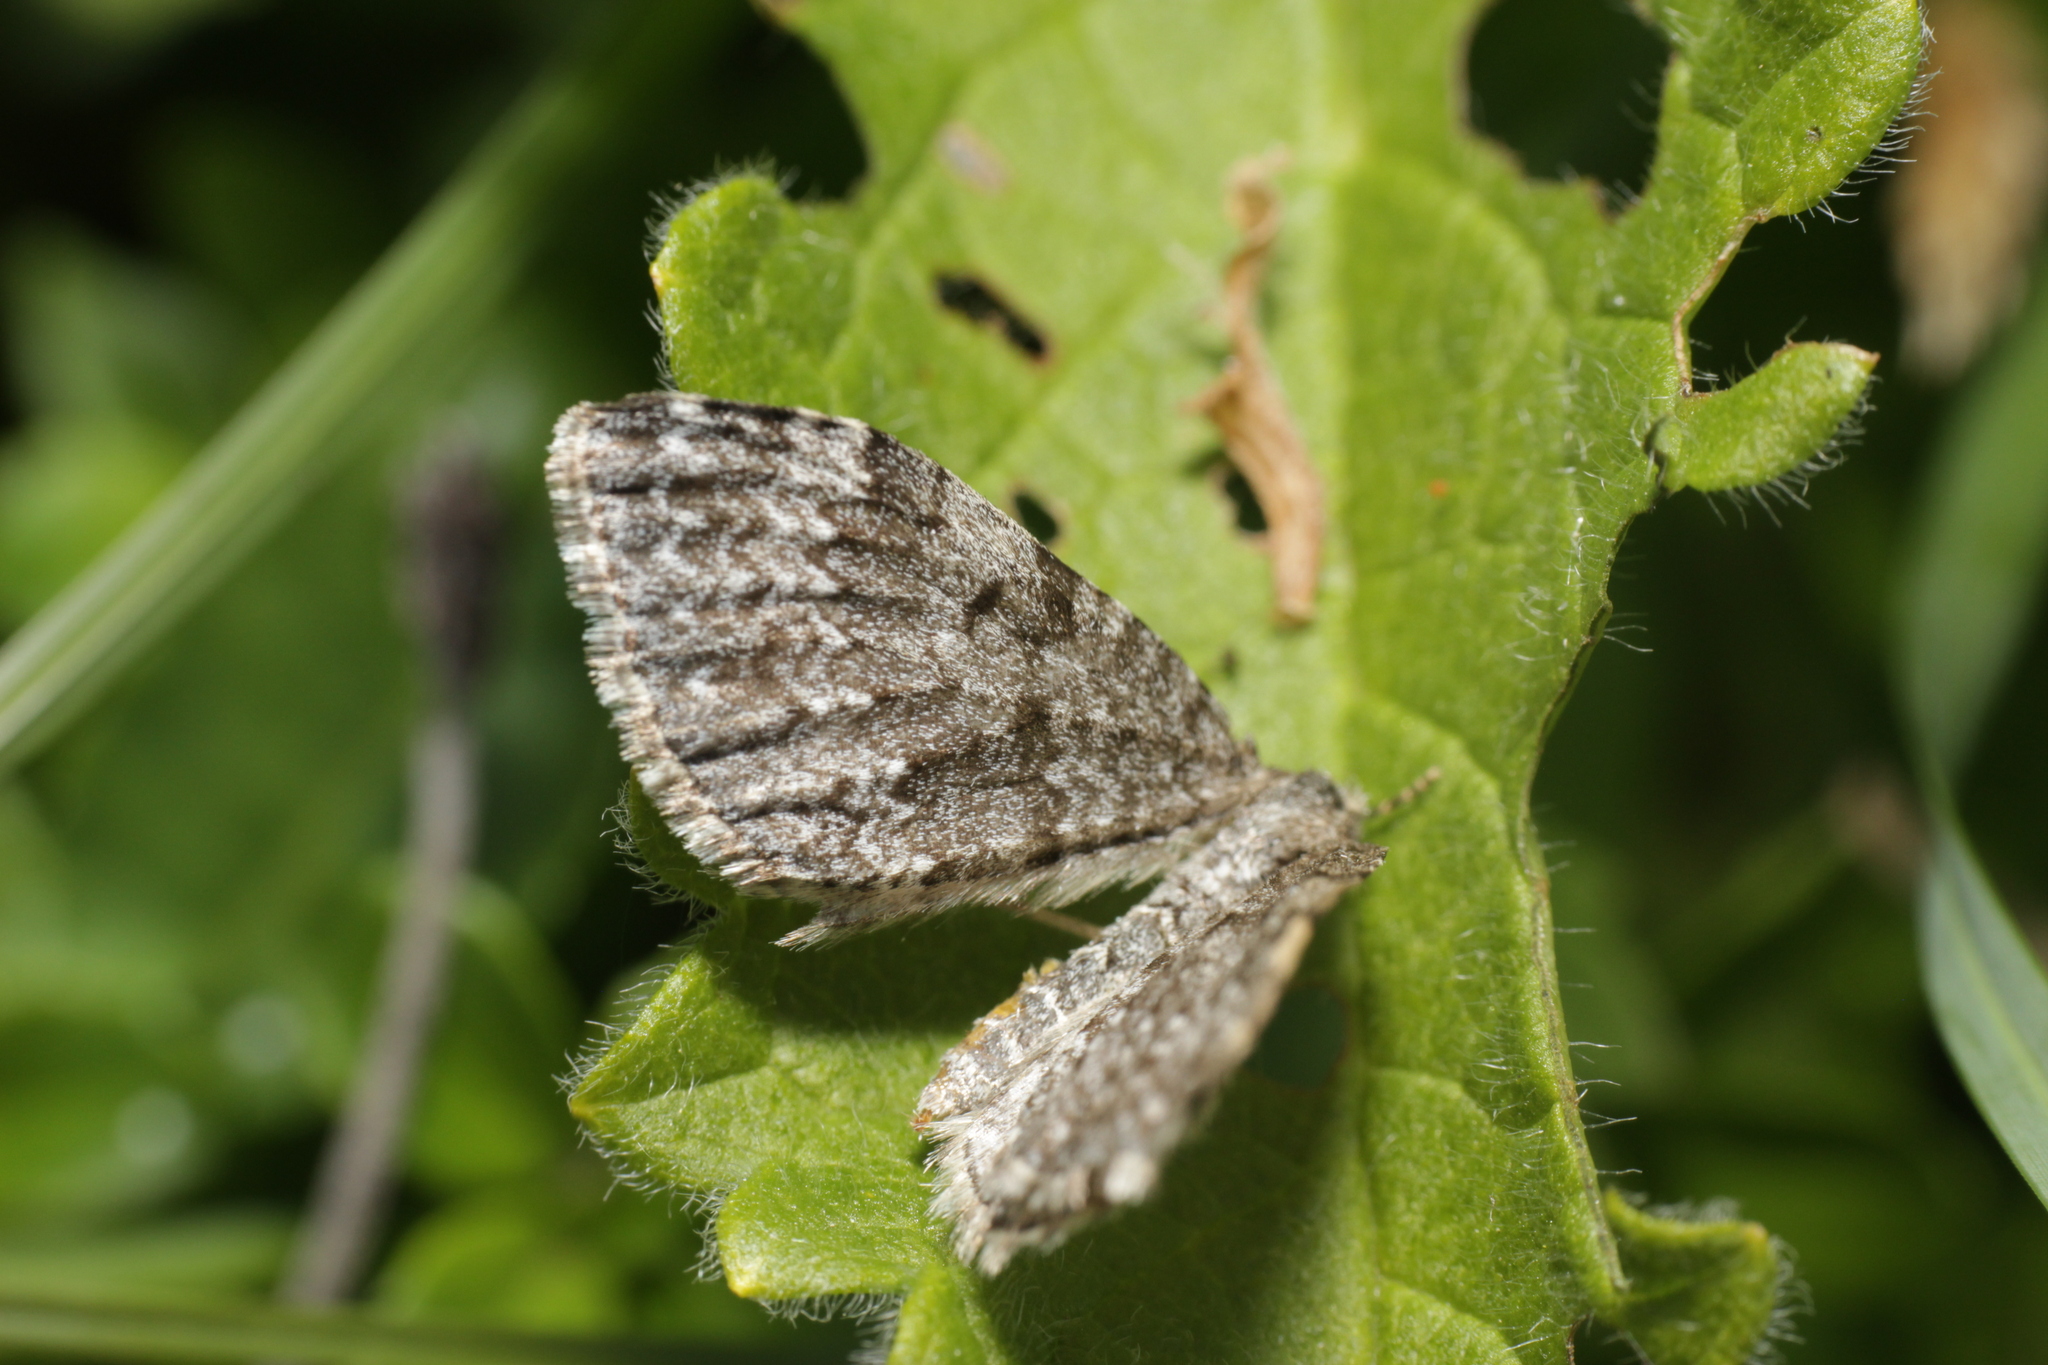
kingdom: Animalia
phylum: Arthropoda
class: Insecta
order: Lepidoptera
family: Geometridae
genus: Entephria
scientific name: Entephria caesiata
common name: Grey mountain moth
